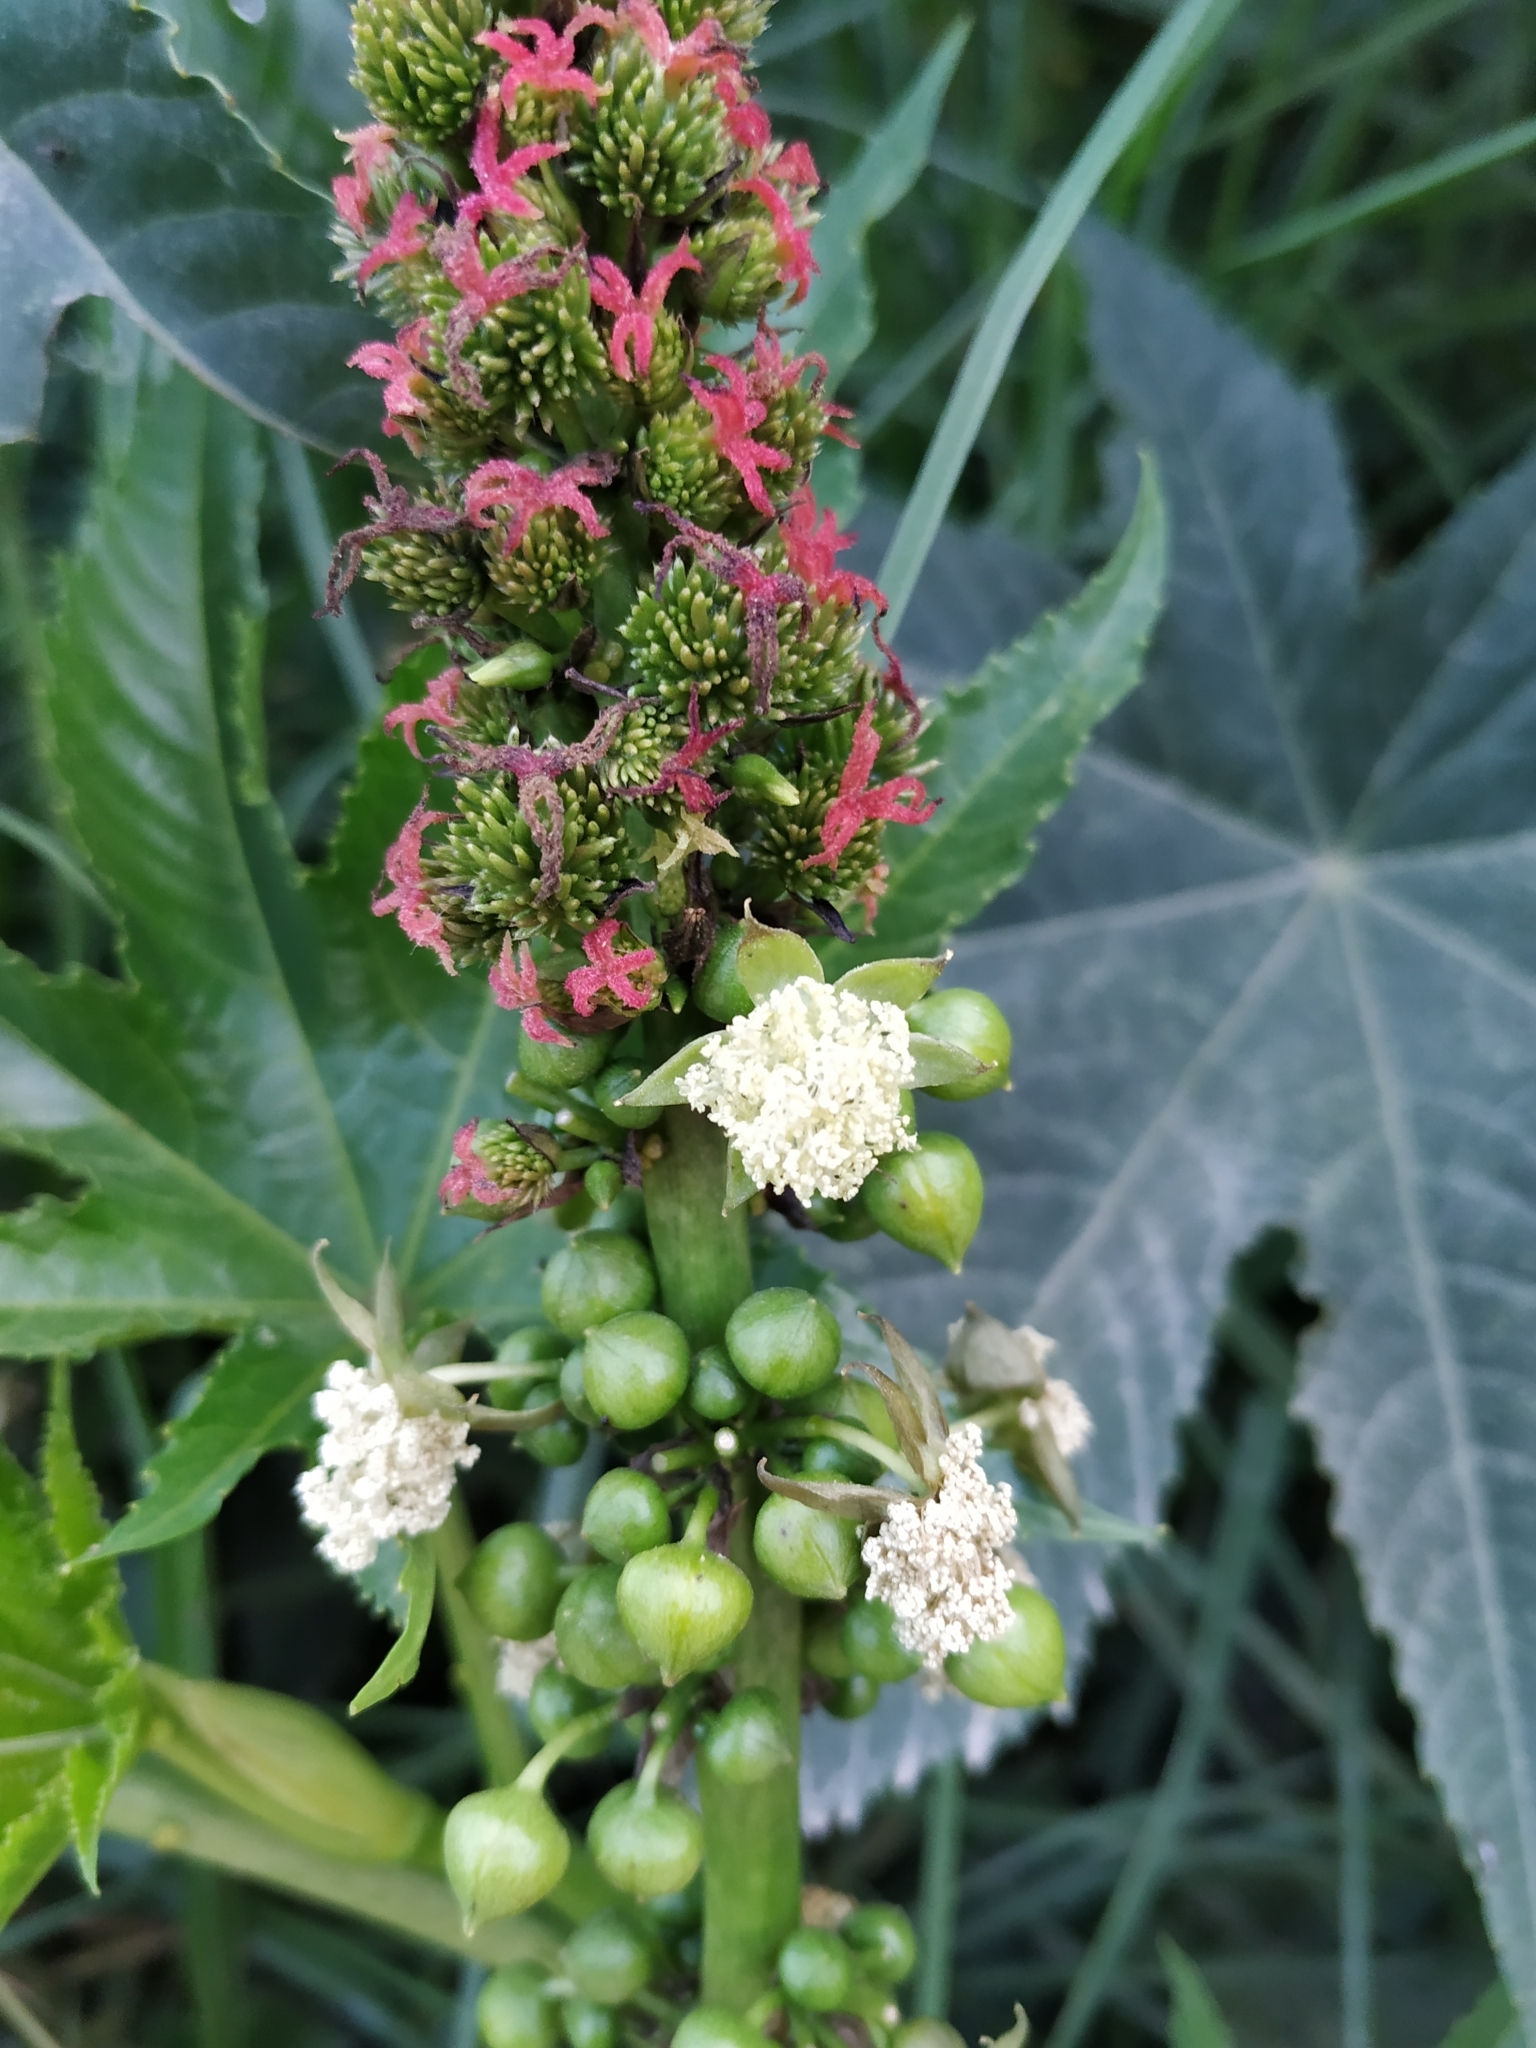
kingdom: Plantae
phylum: Tracheophyta
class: Magnoliopsida
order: Malpighiales
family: Euphorbiaceae
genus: Ricinus
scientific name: Ricinus communis
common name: Castor-oil-plant
